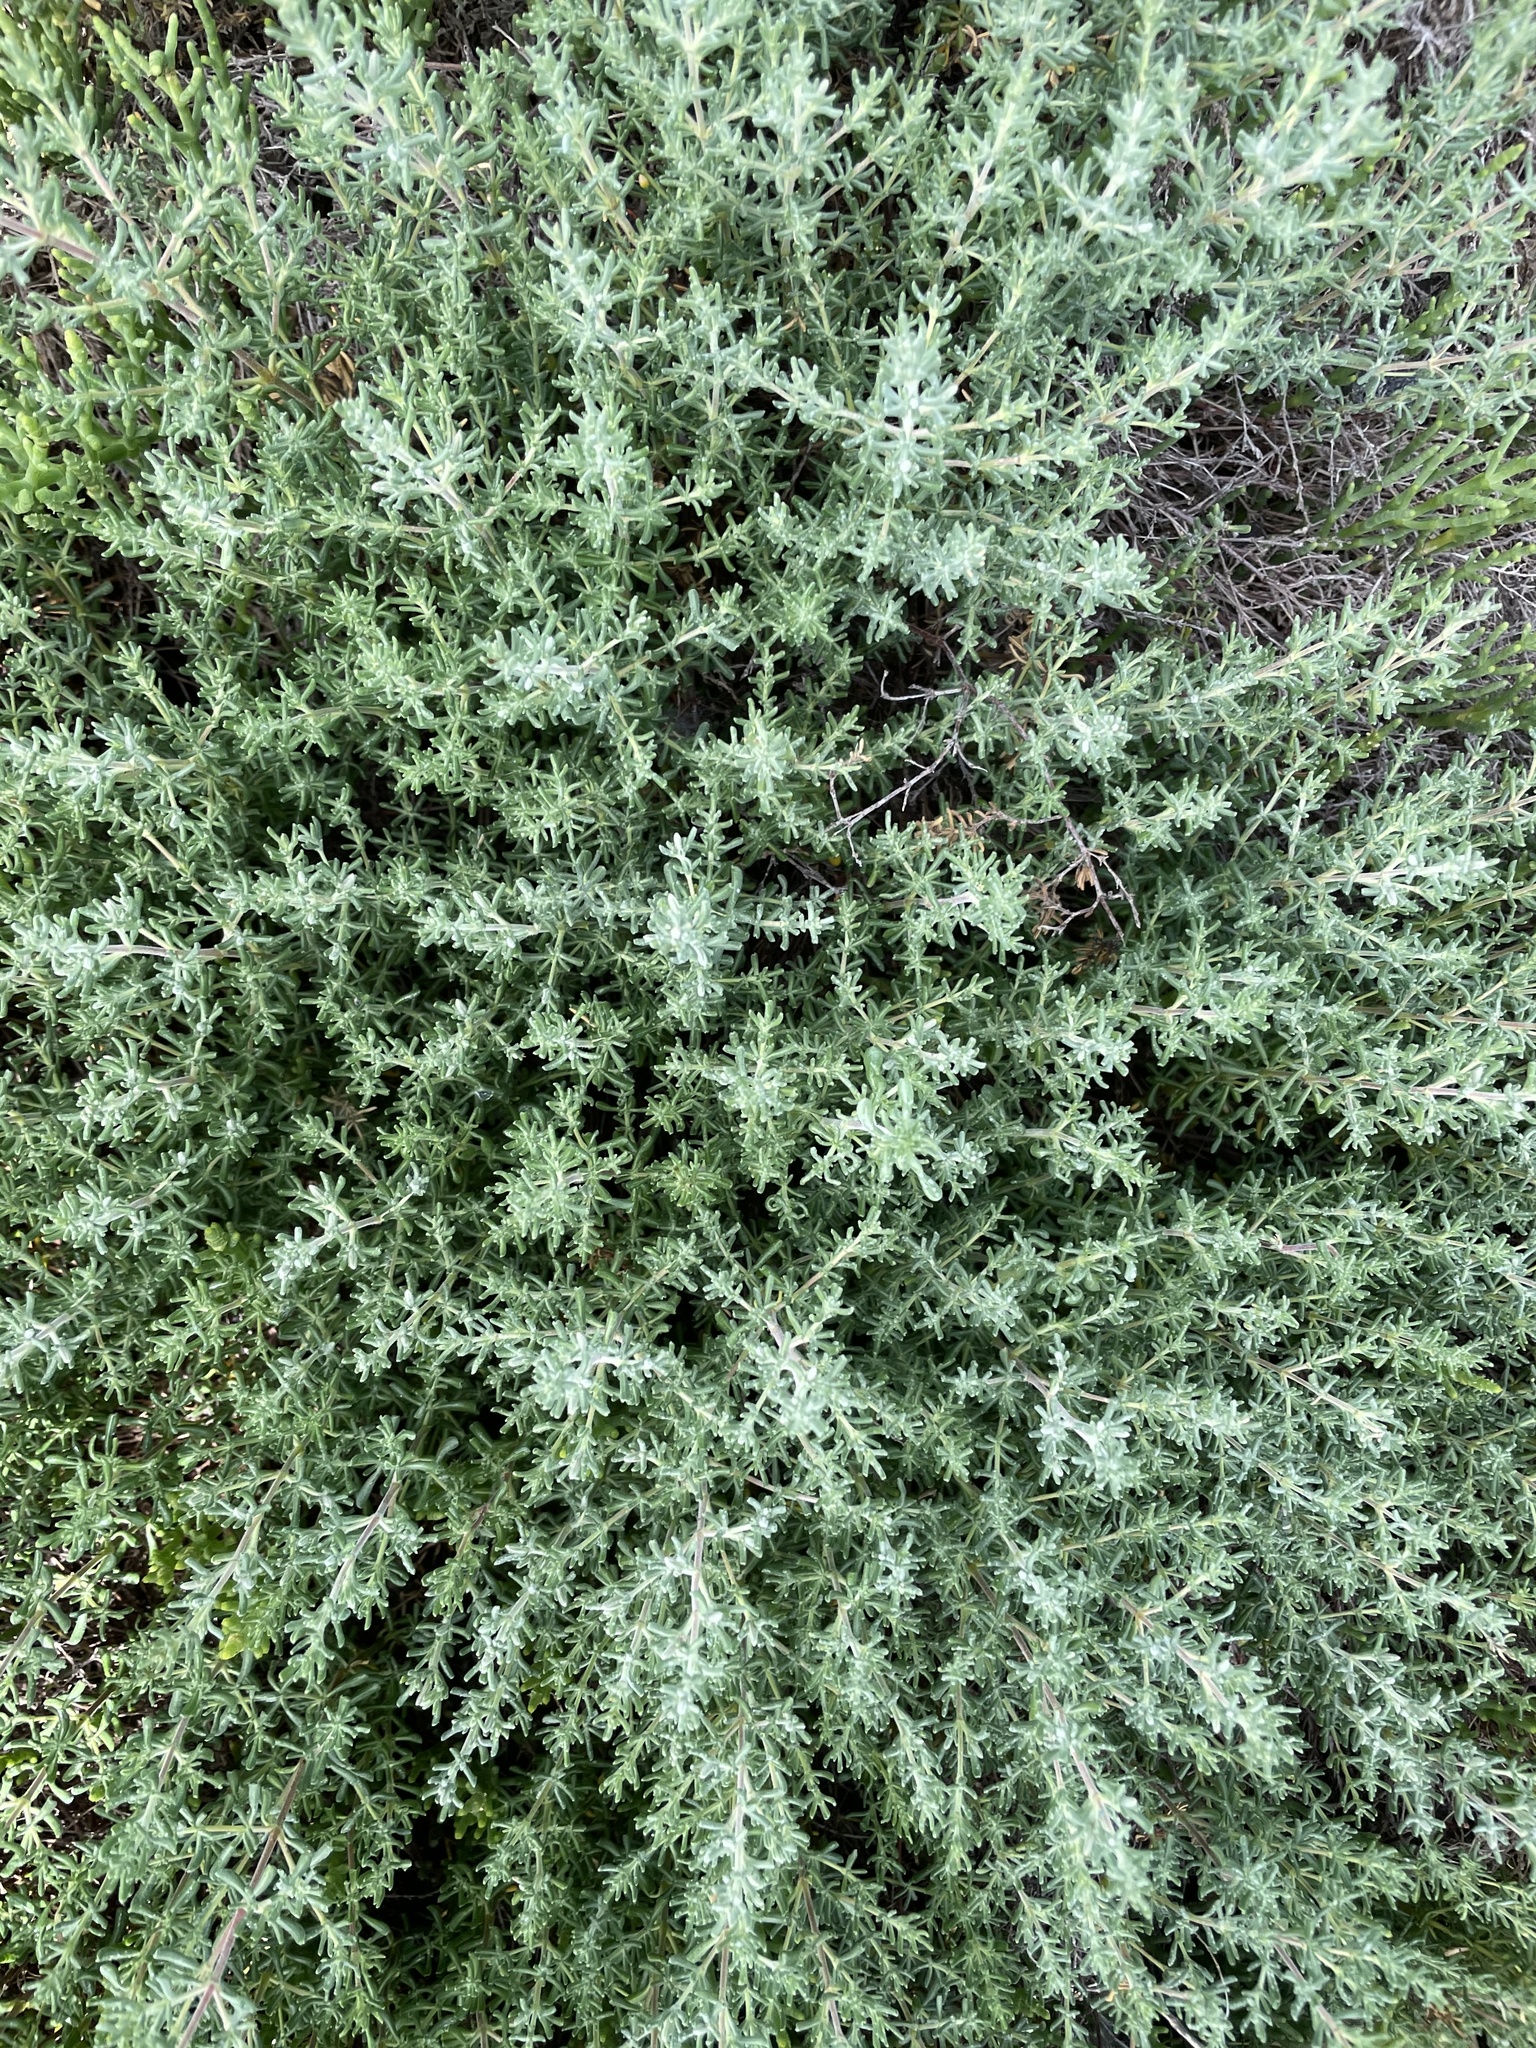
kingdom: Plantae
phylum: Tracheophyta
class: Magnoliopsida
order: Caryophyllales
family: Amaranthaceae
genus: Suaeda
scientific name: Suaeda taxifolia
